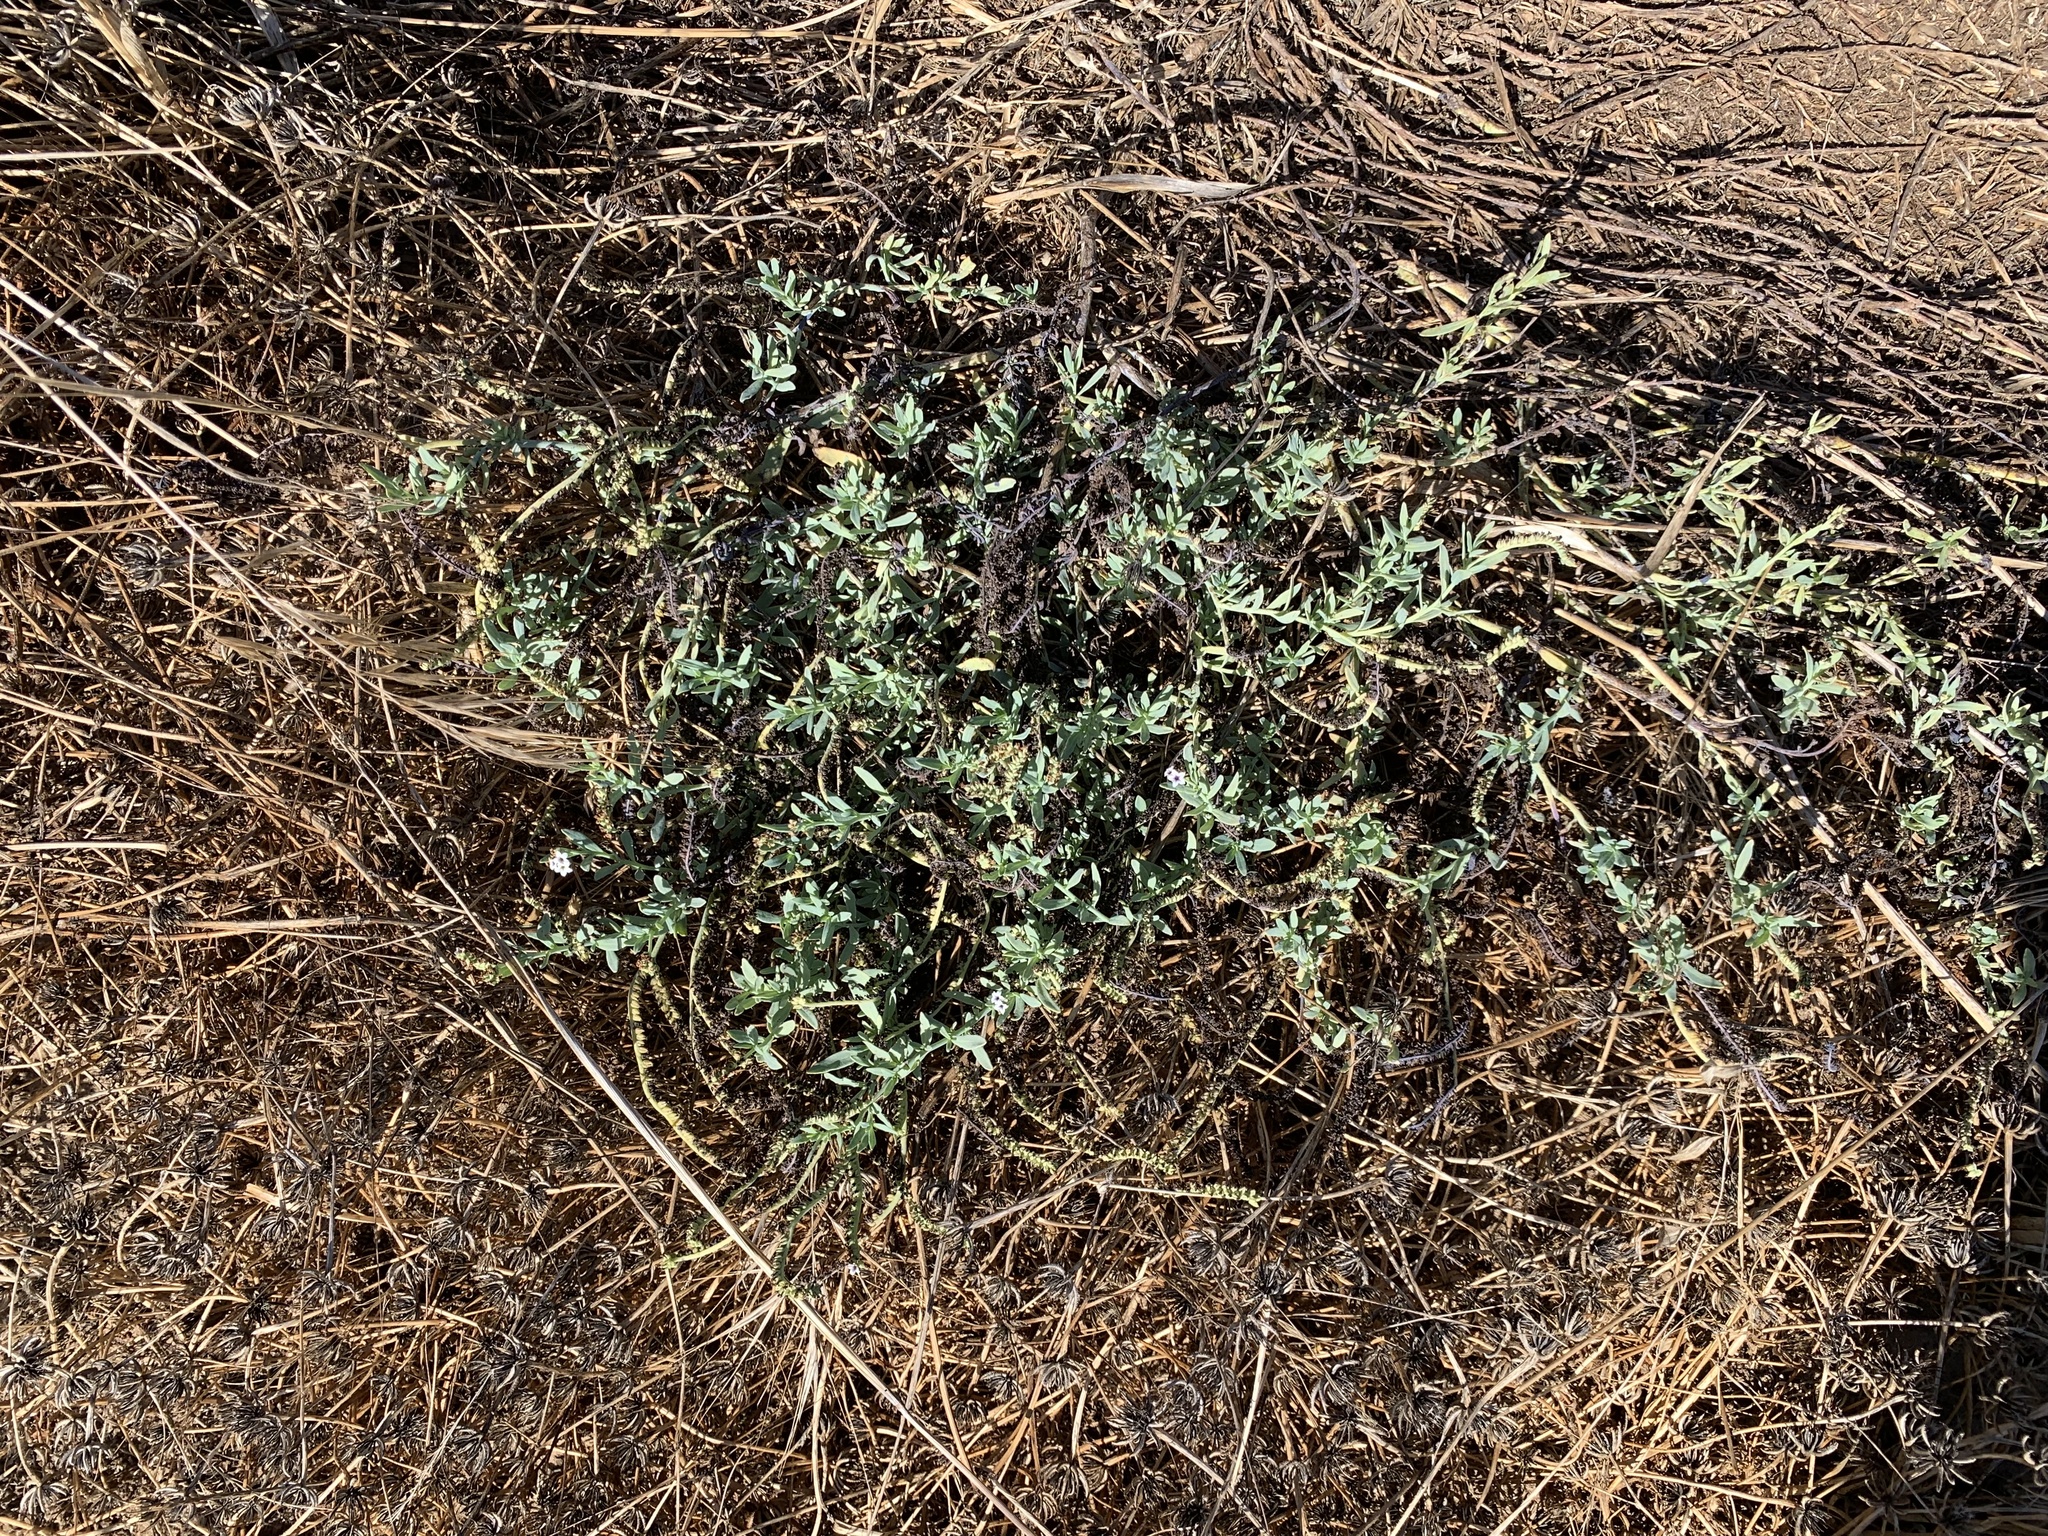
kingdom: Plantae
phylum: Tracheophyta
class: Magnoliopsida
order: Boraginales
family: Heliotropiaceae
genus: Heliotropium
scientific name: Heliotropium curassavicum
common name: Seaside heliotrope
